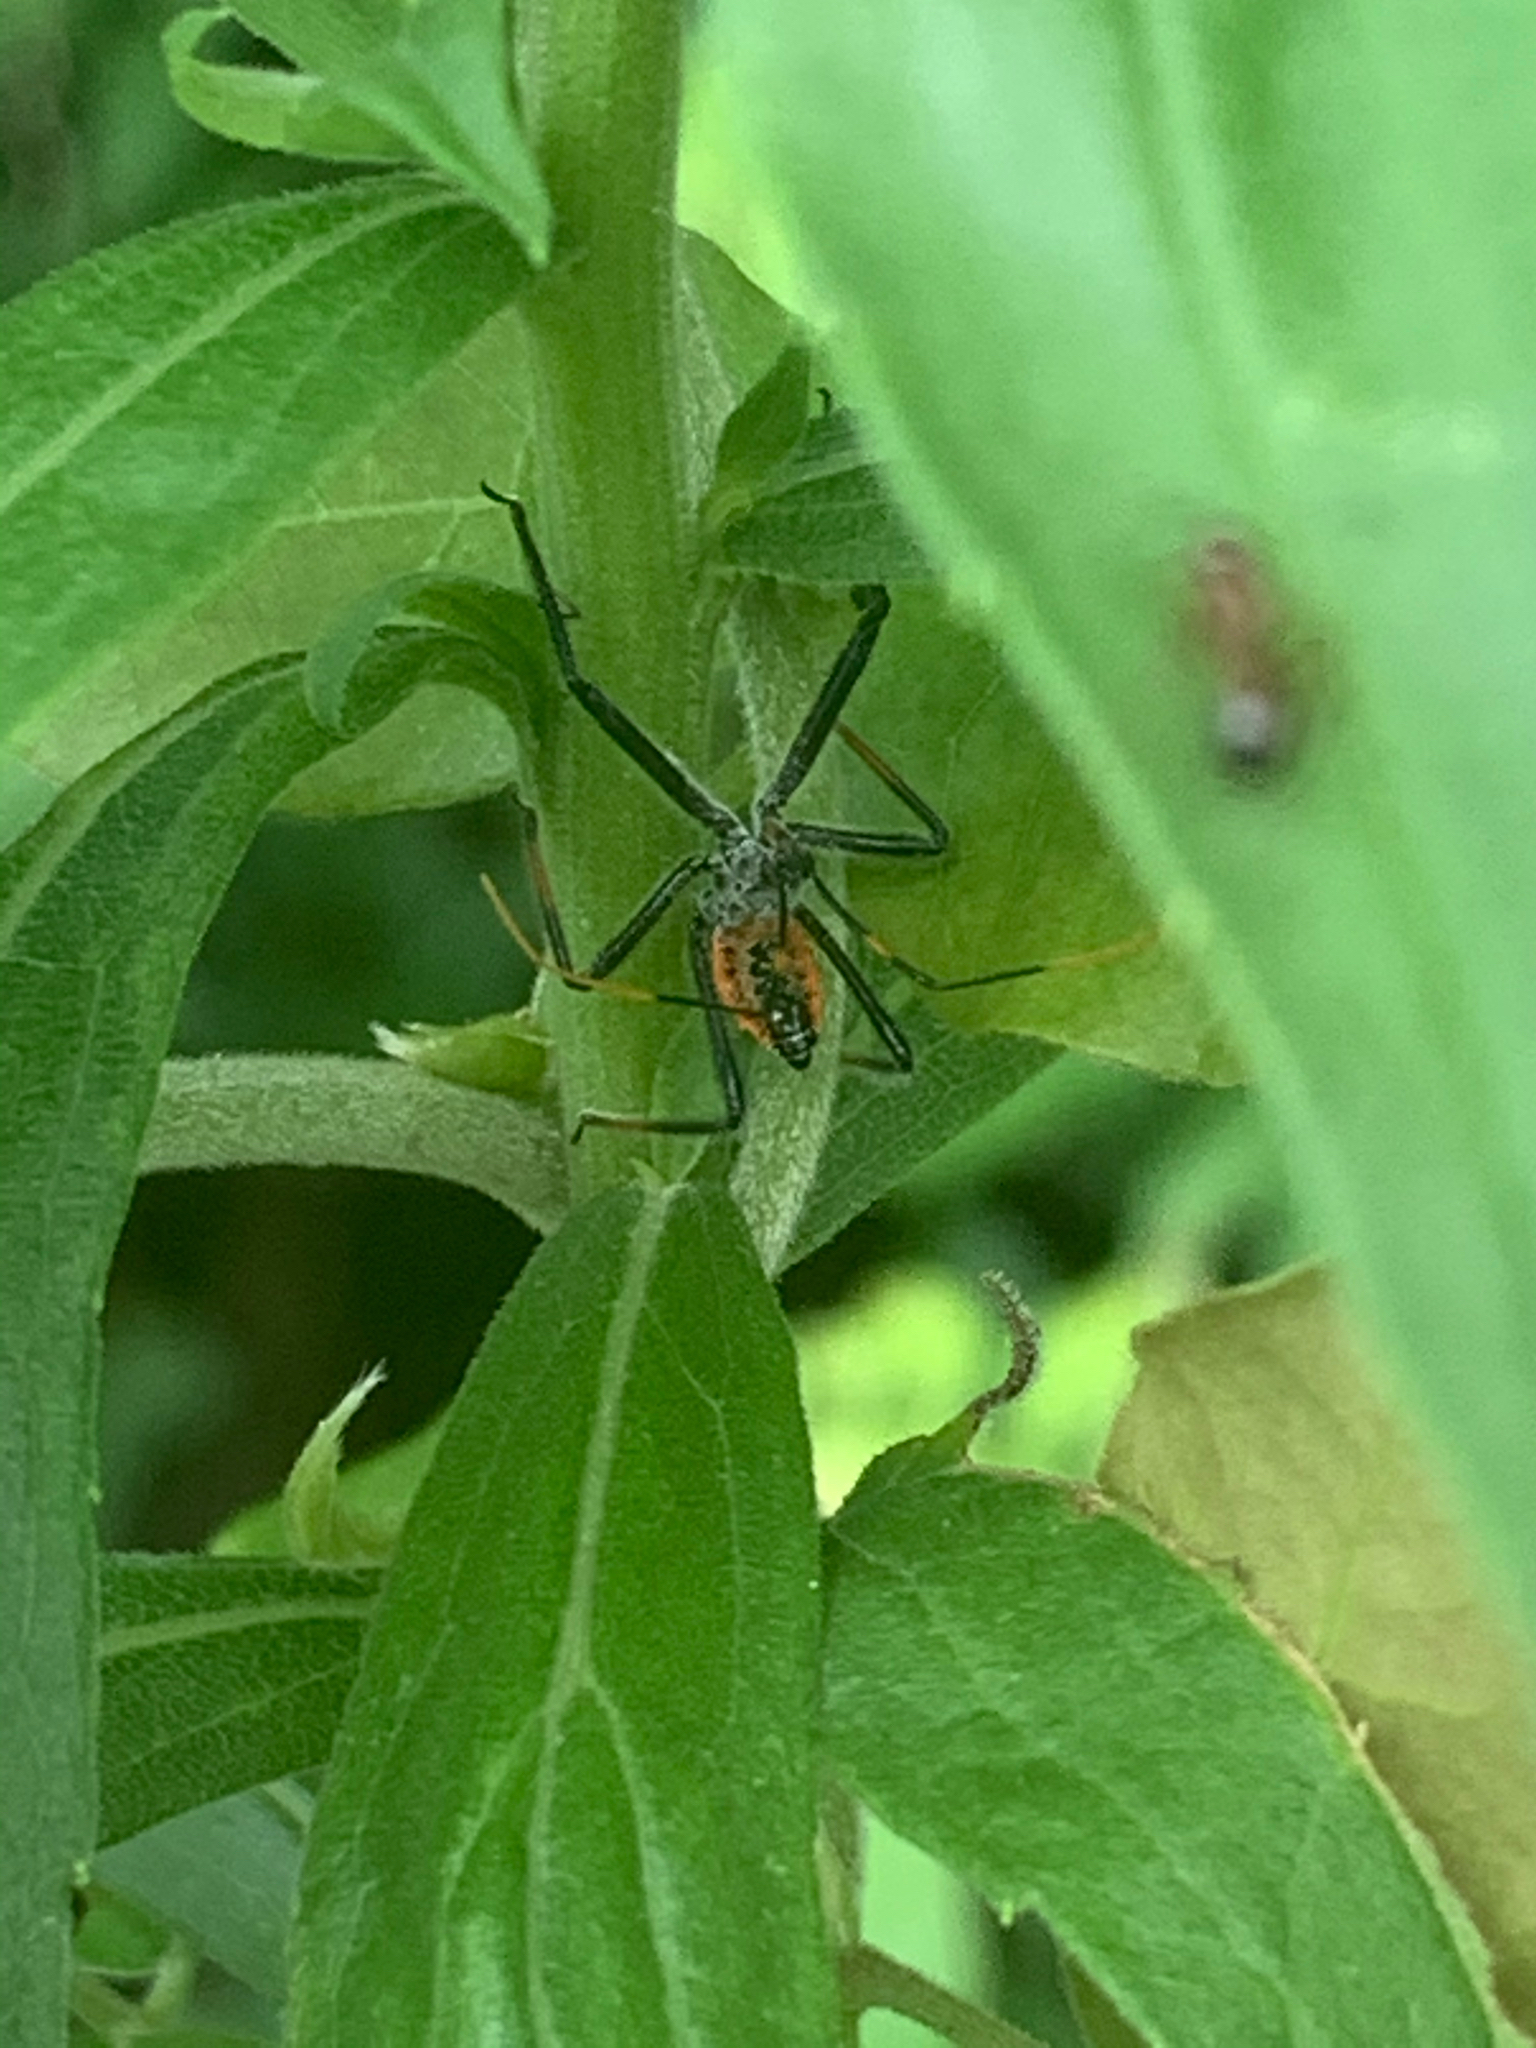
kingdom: Animalia
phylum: Arthropoda
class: Insecta
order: Hemiptera
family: Reduviidae
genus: Arilus
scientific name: Arilus cristatus
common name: North american wheel bug
